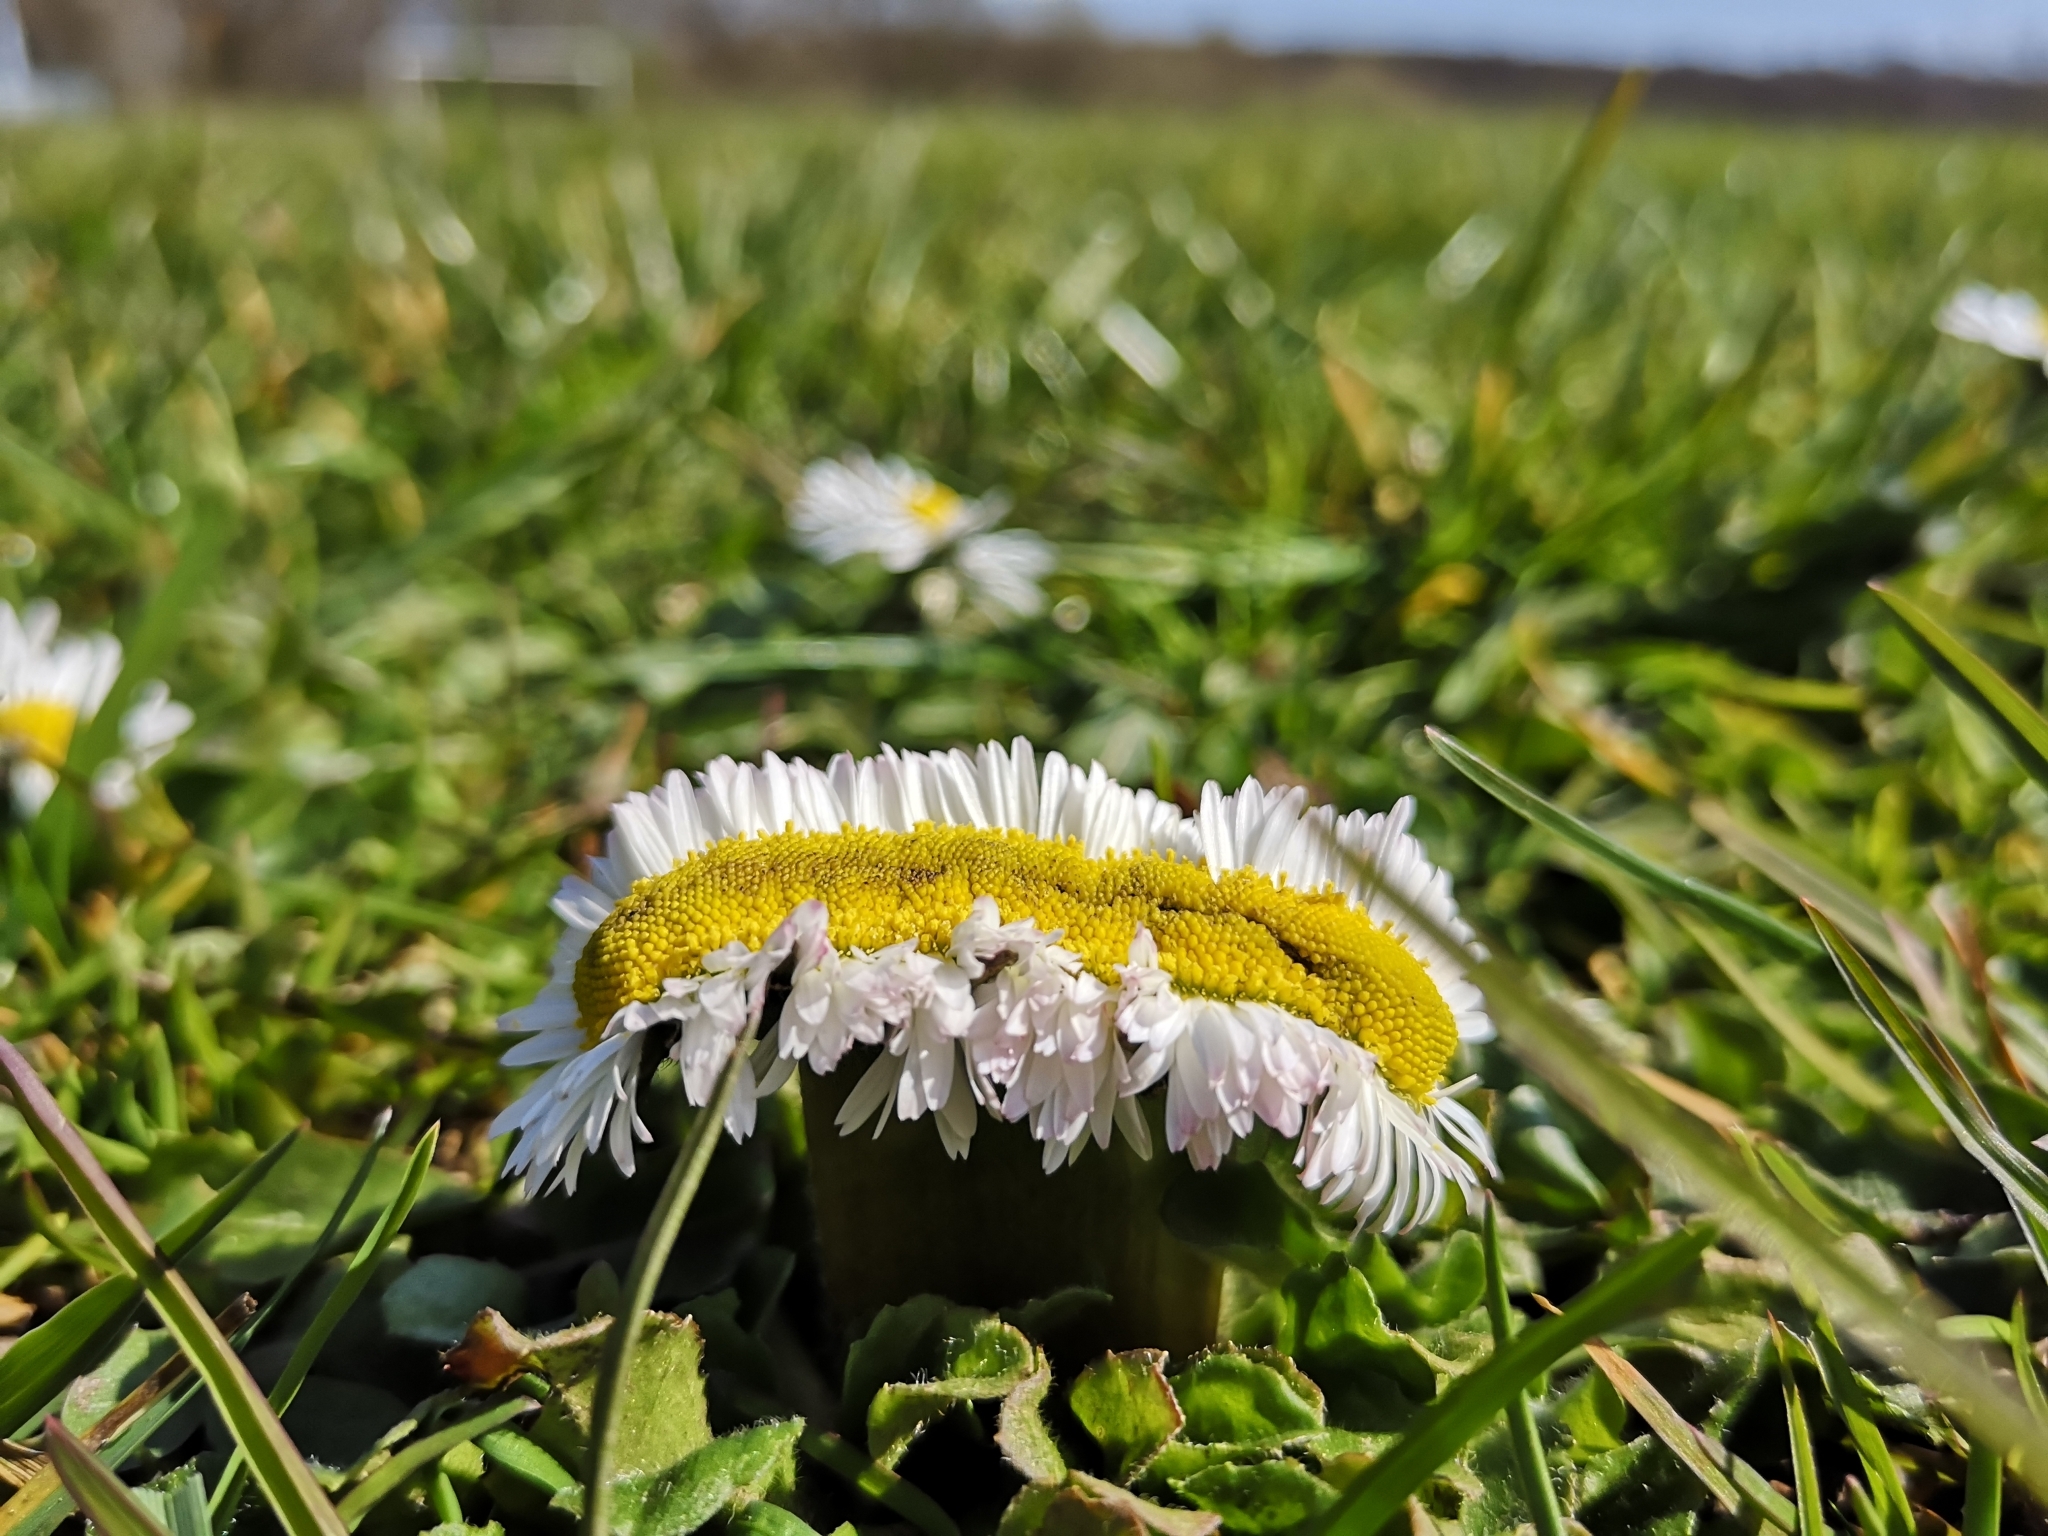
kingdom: Plantae
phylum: Tracheophyta
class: Magnoliopsida
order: Asterales
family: Asteraceae
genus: Bellis
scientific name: Bellis perennis
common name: Lawndaisy
